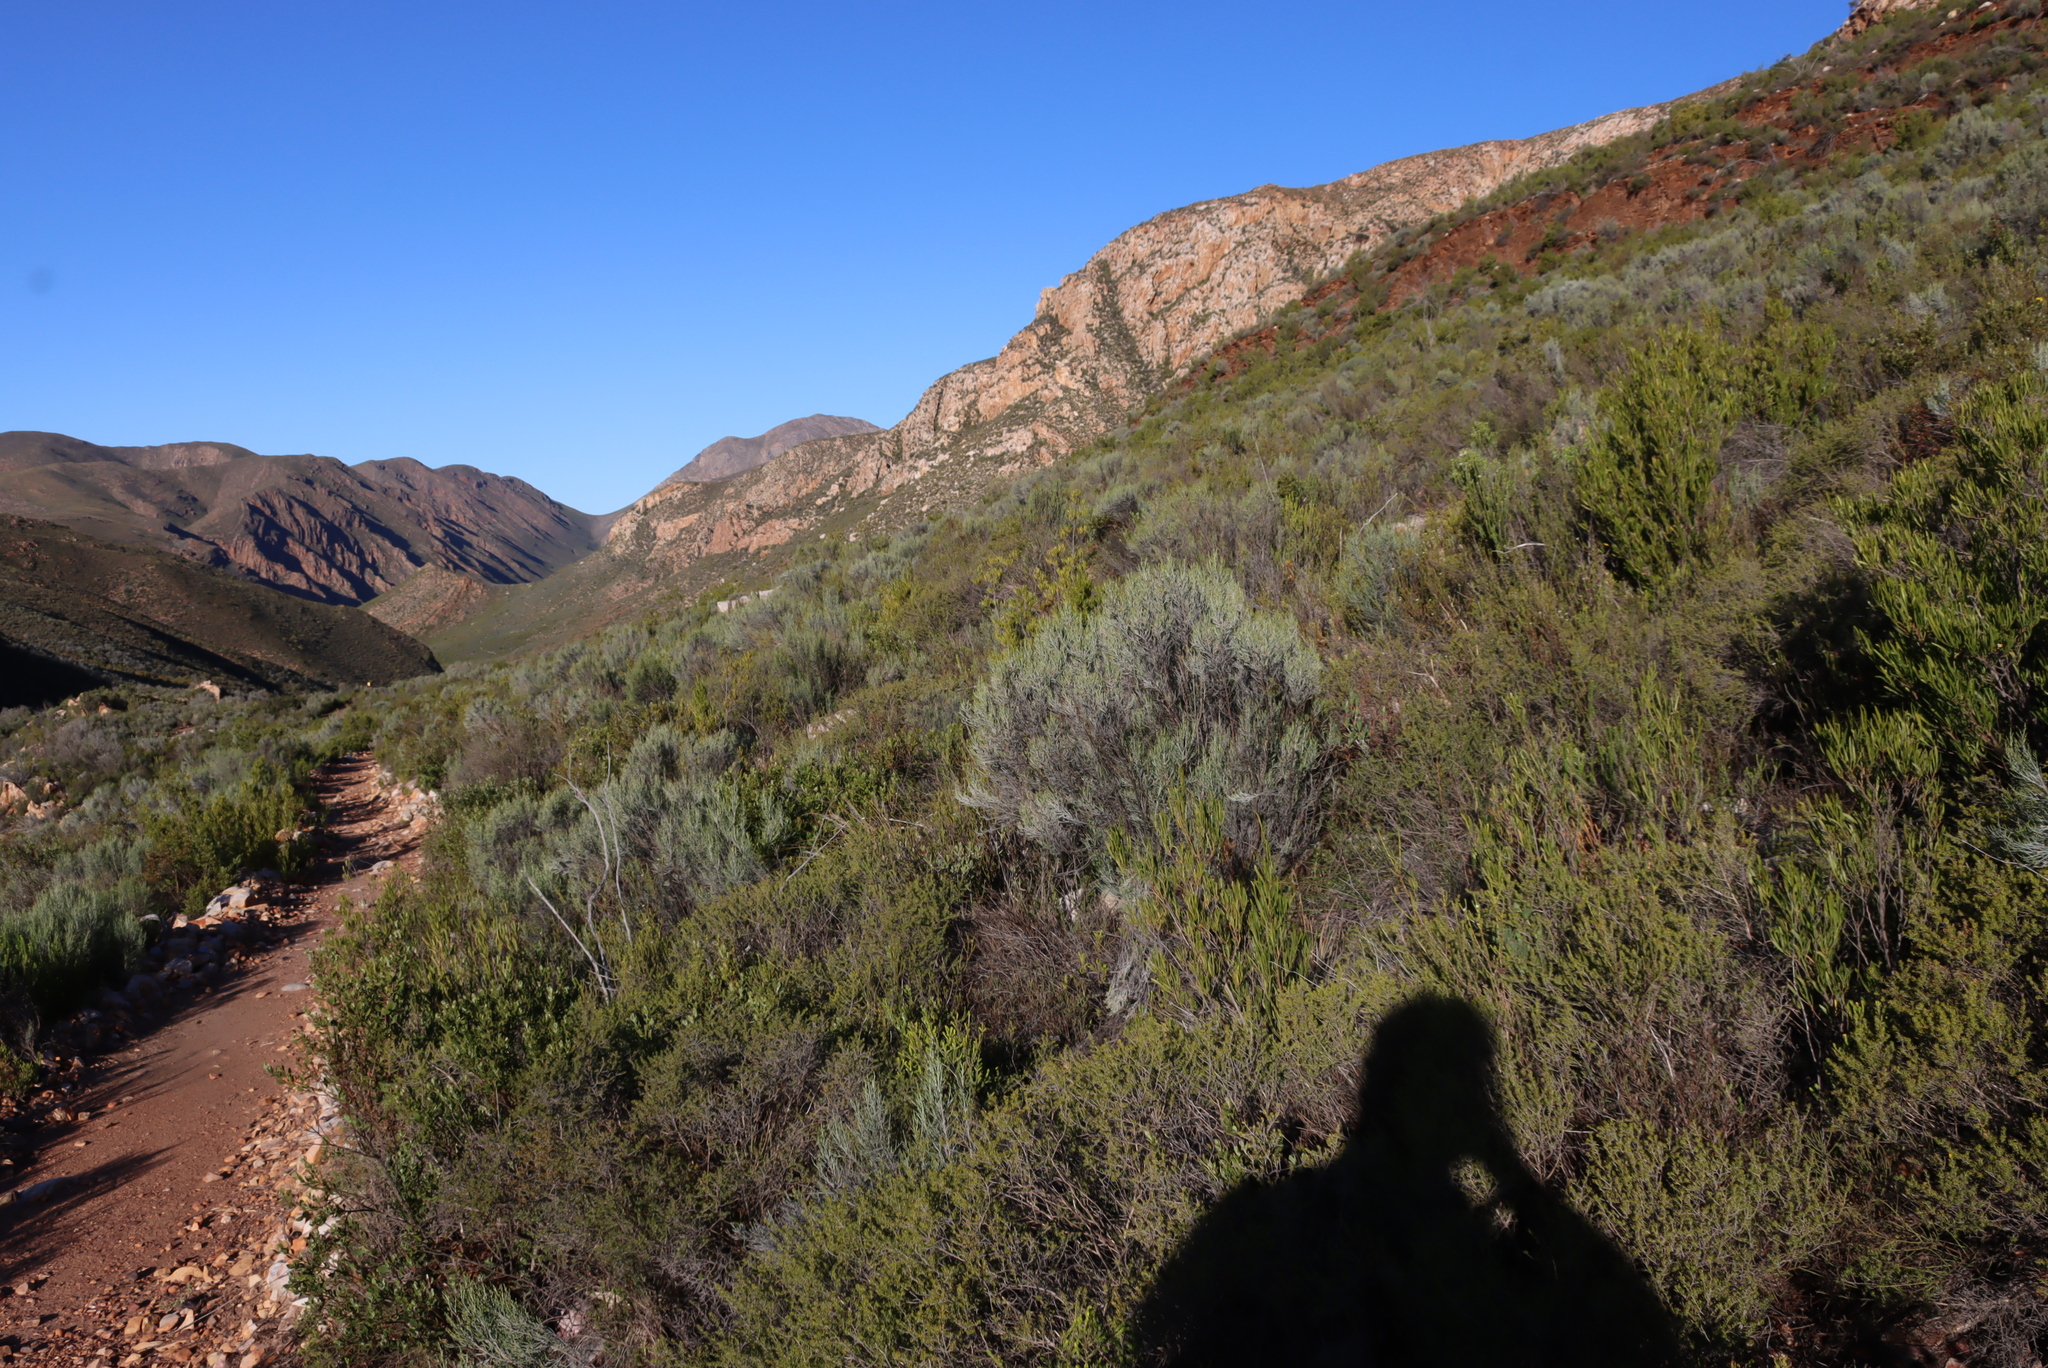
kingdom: Plantae
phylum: Tracheophyta
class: Magnoliopsida
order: Asterales
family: Asteraceae
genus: Dicerothamnus
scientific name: Dicerothamnus rhinocerotis
